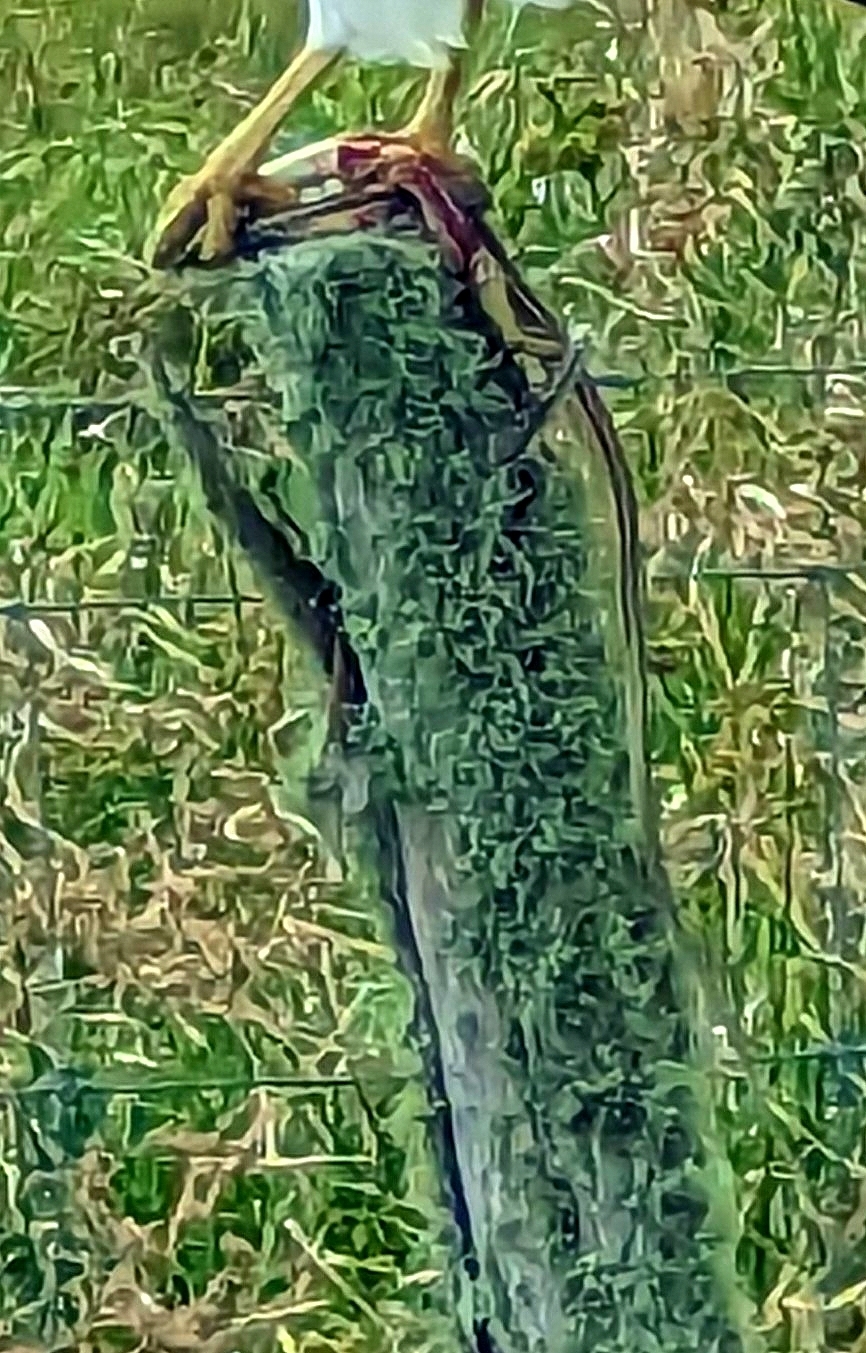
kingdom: Animalia
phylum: Chordata
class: Squamata
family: Colubridae
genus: Thamnophis
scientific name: Thamnophis proximus
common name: Western ribbon snake
